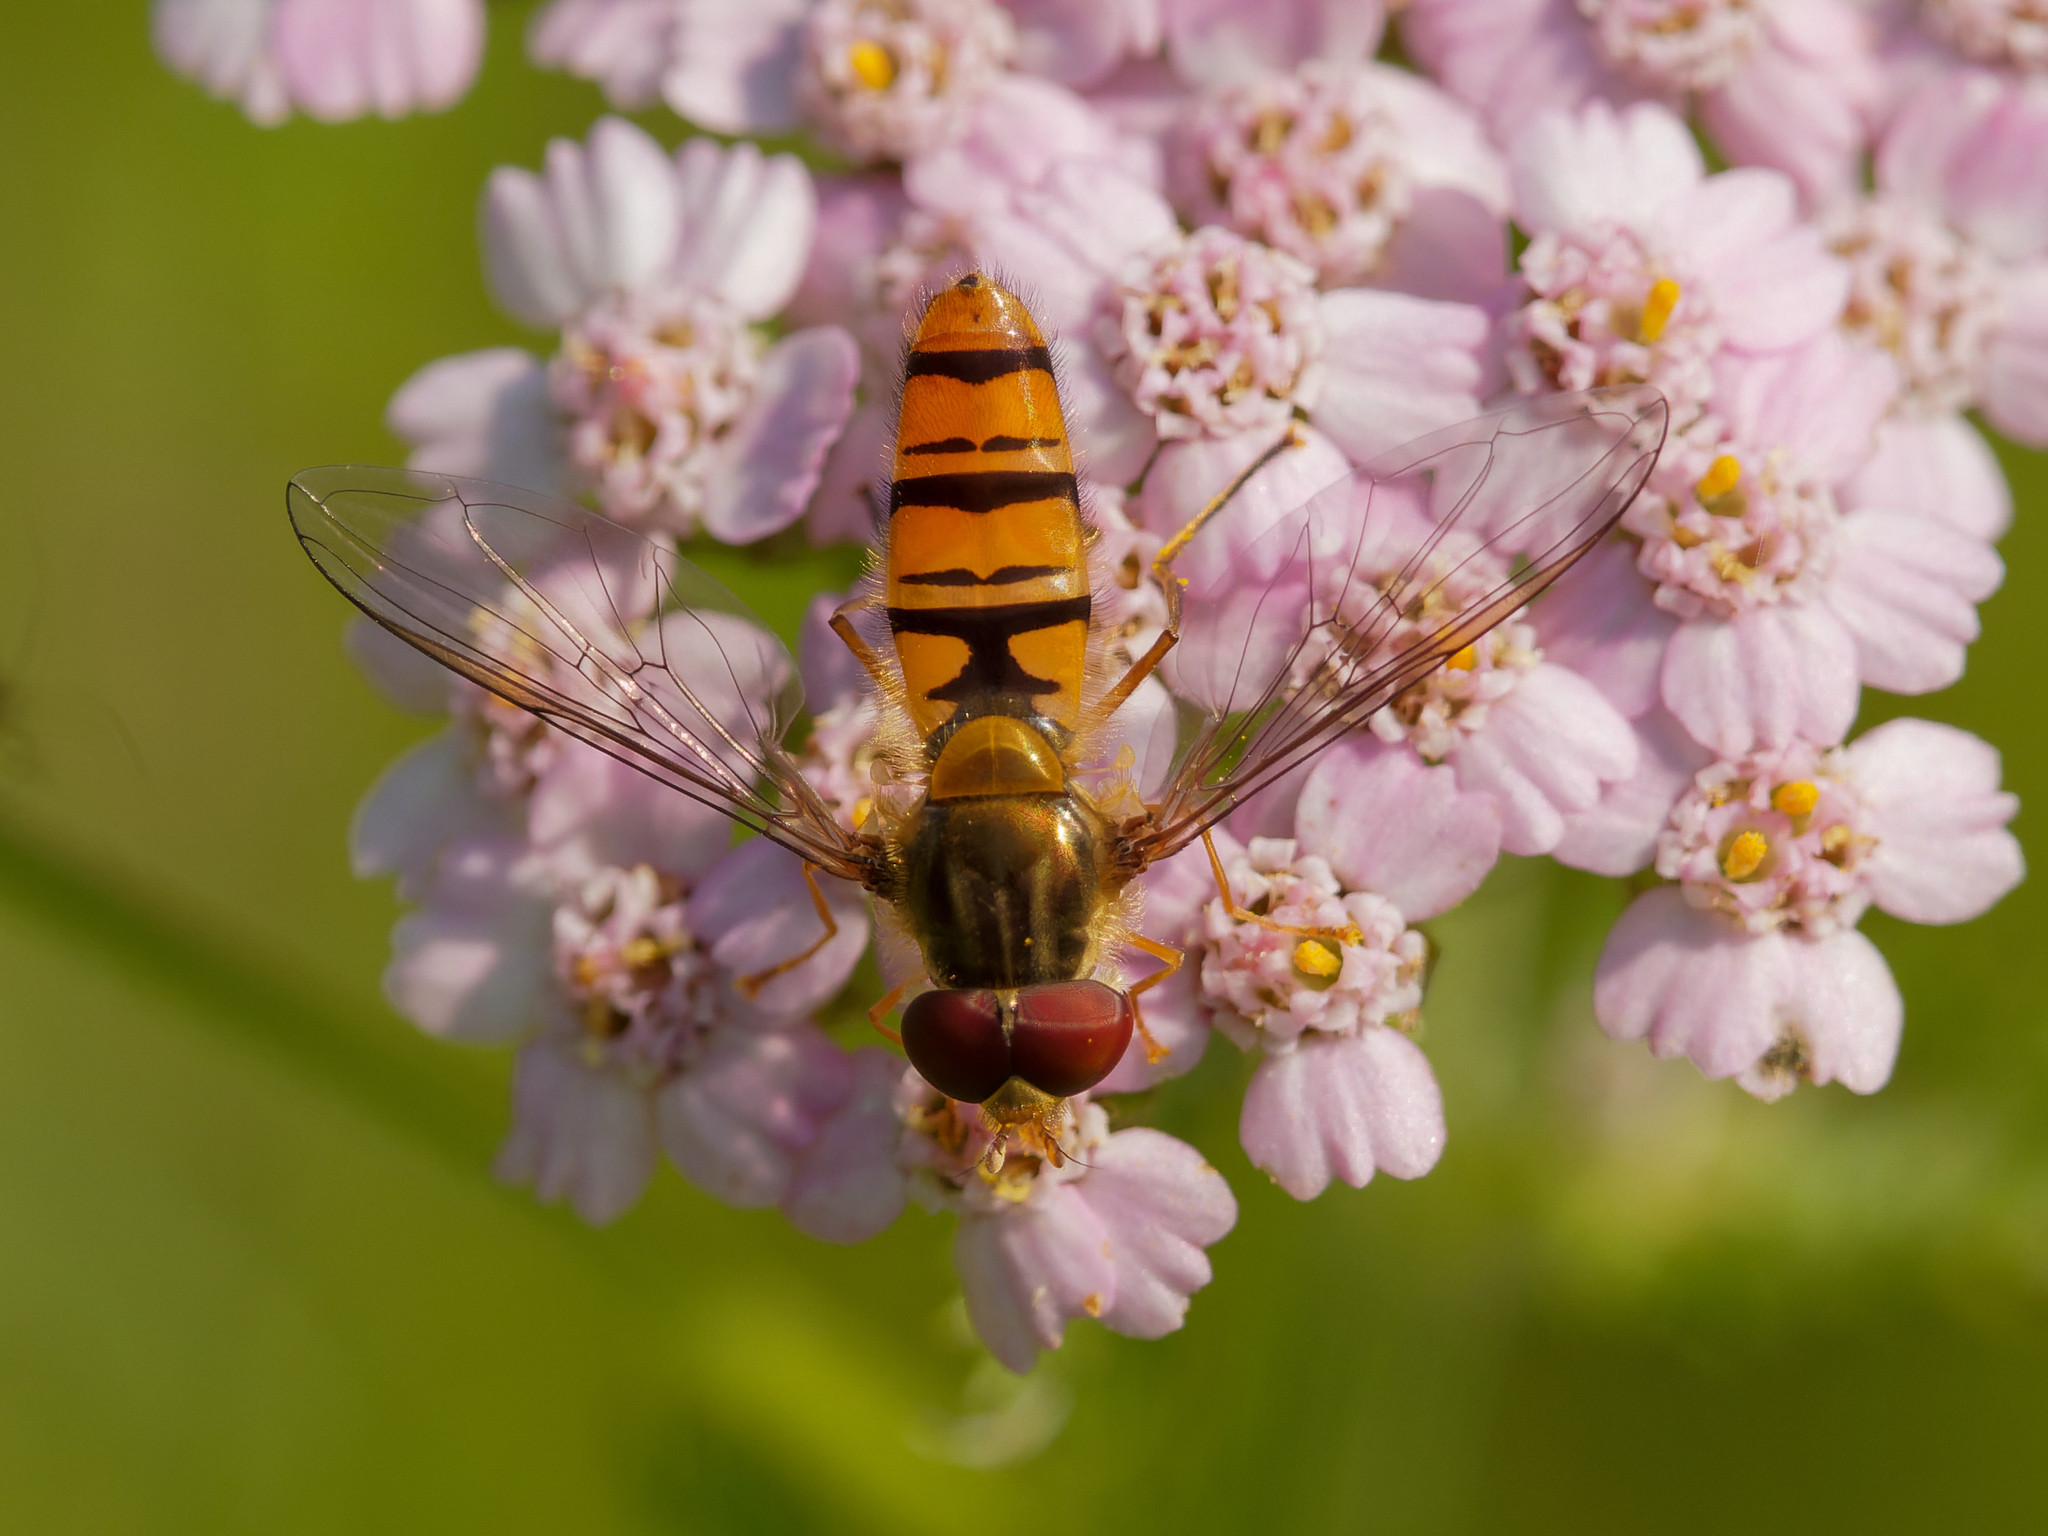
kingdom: Animalia
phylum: Arthropoda
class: Insecta
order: Diptera
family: Syrphidae
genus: Episyrphus
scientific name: Episyrphus balteatus
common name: Marmalade hoverfly
